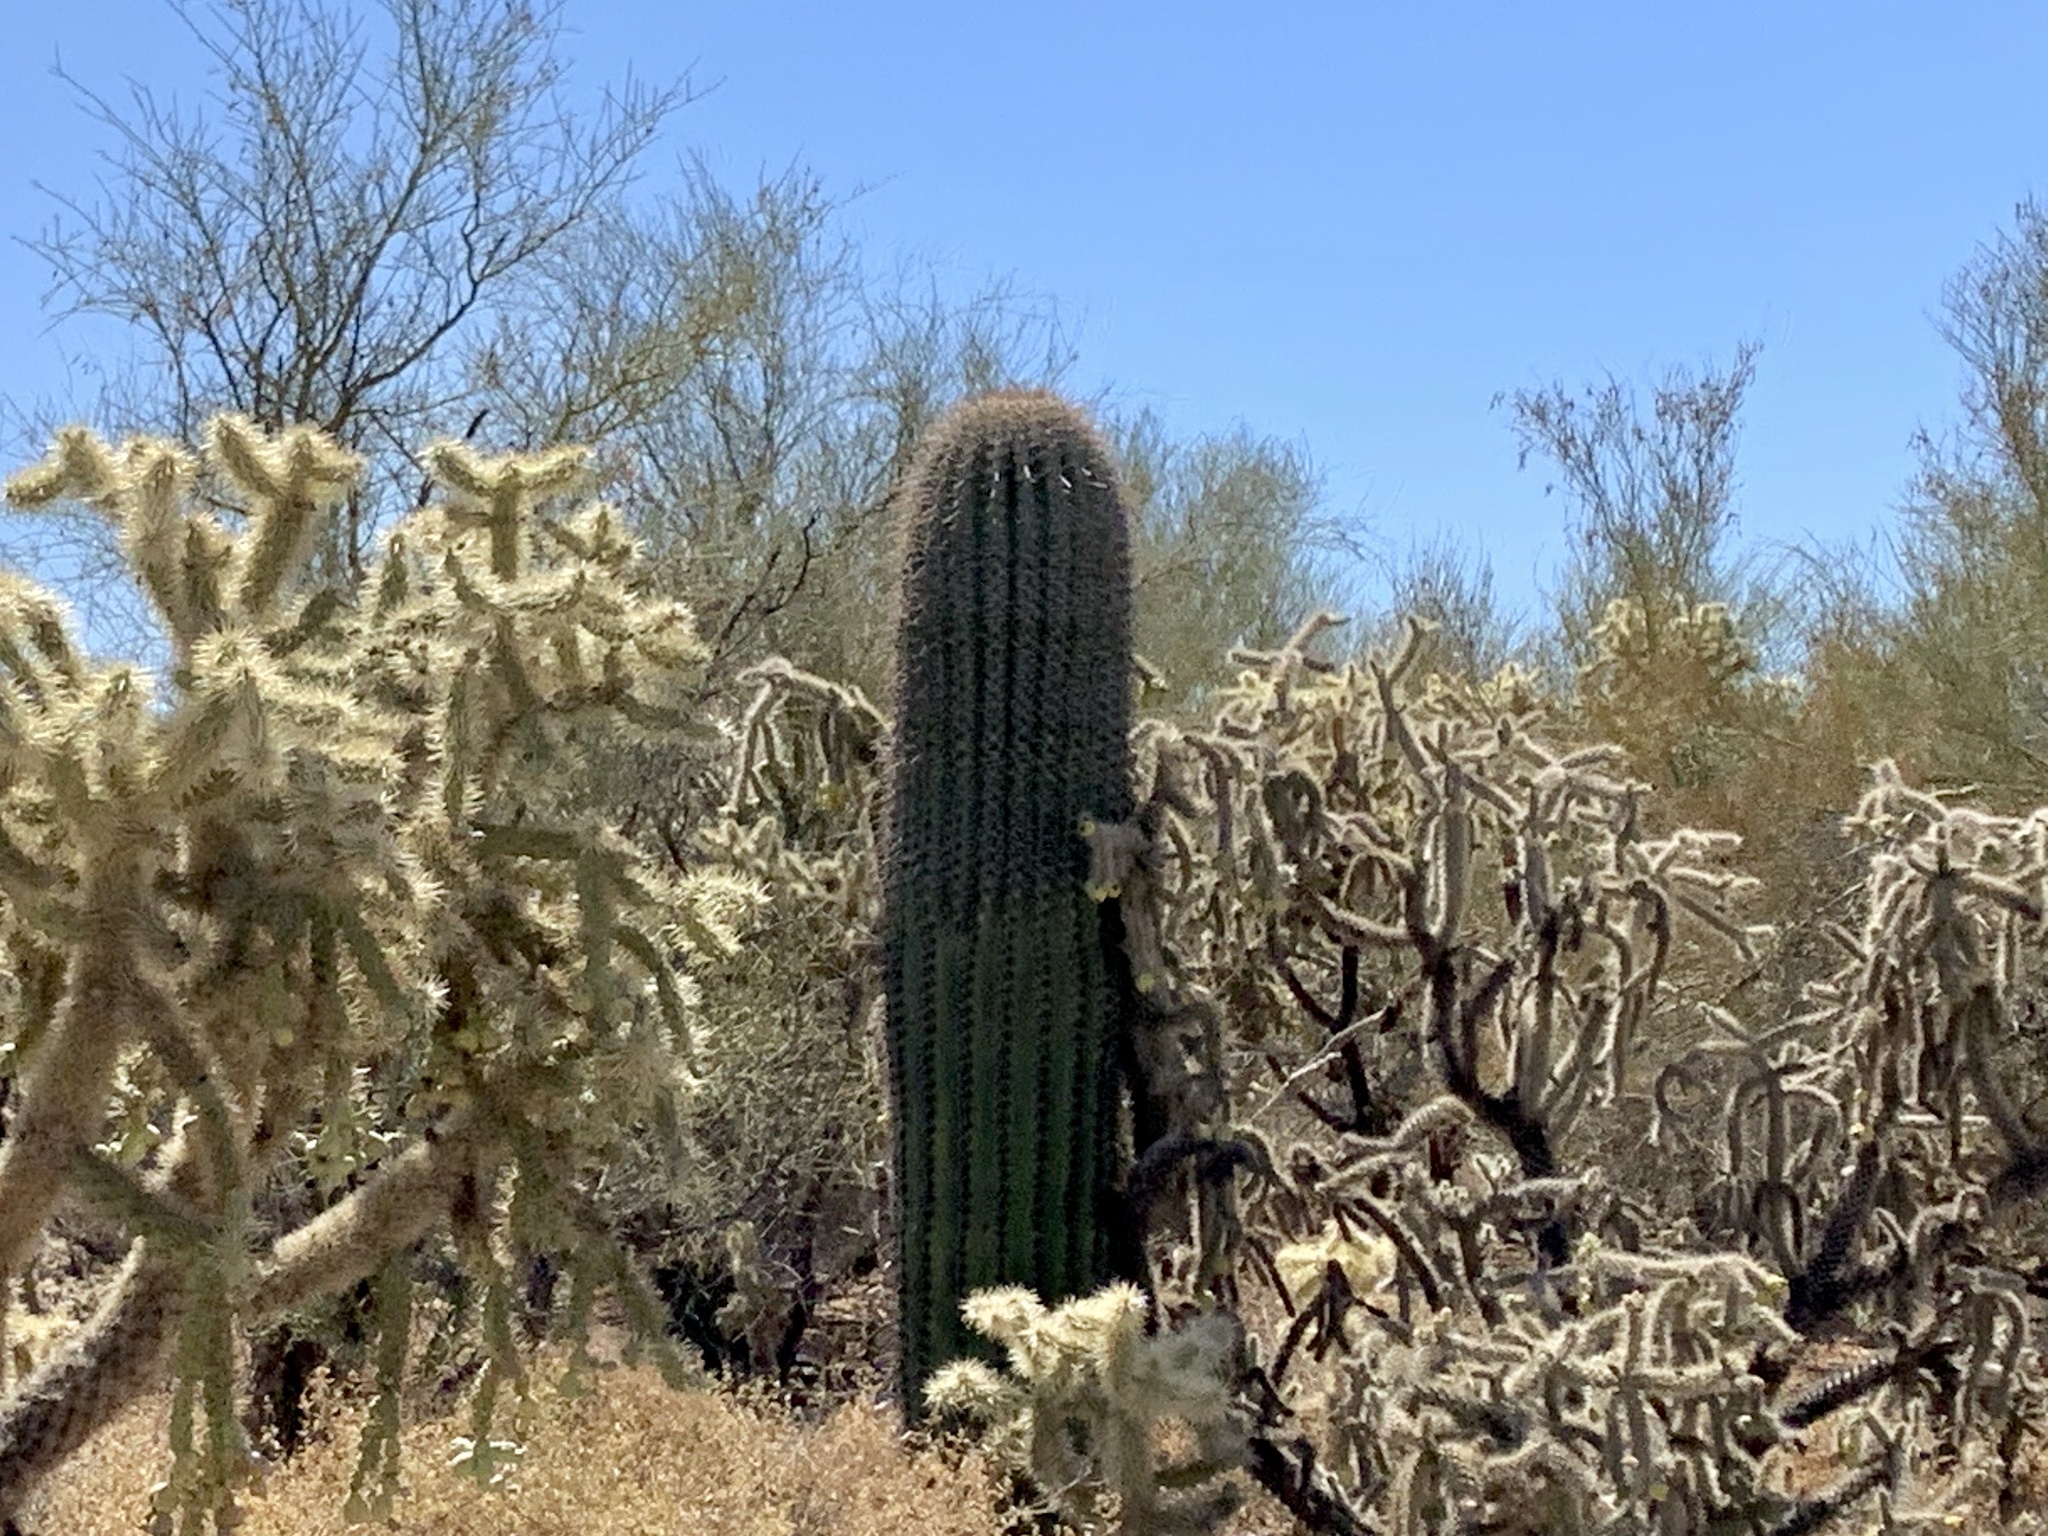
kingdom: Plantae
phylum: Tracheophyta
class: Magnoliopsida
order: Caryophyllales
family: Cactaceae
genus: Carnegiea
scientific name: Carnegiea gigantea
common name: Saguaro
